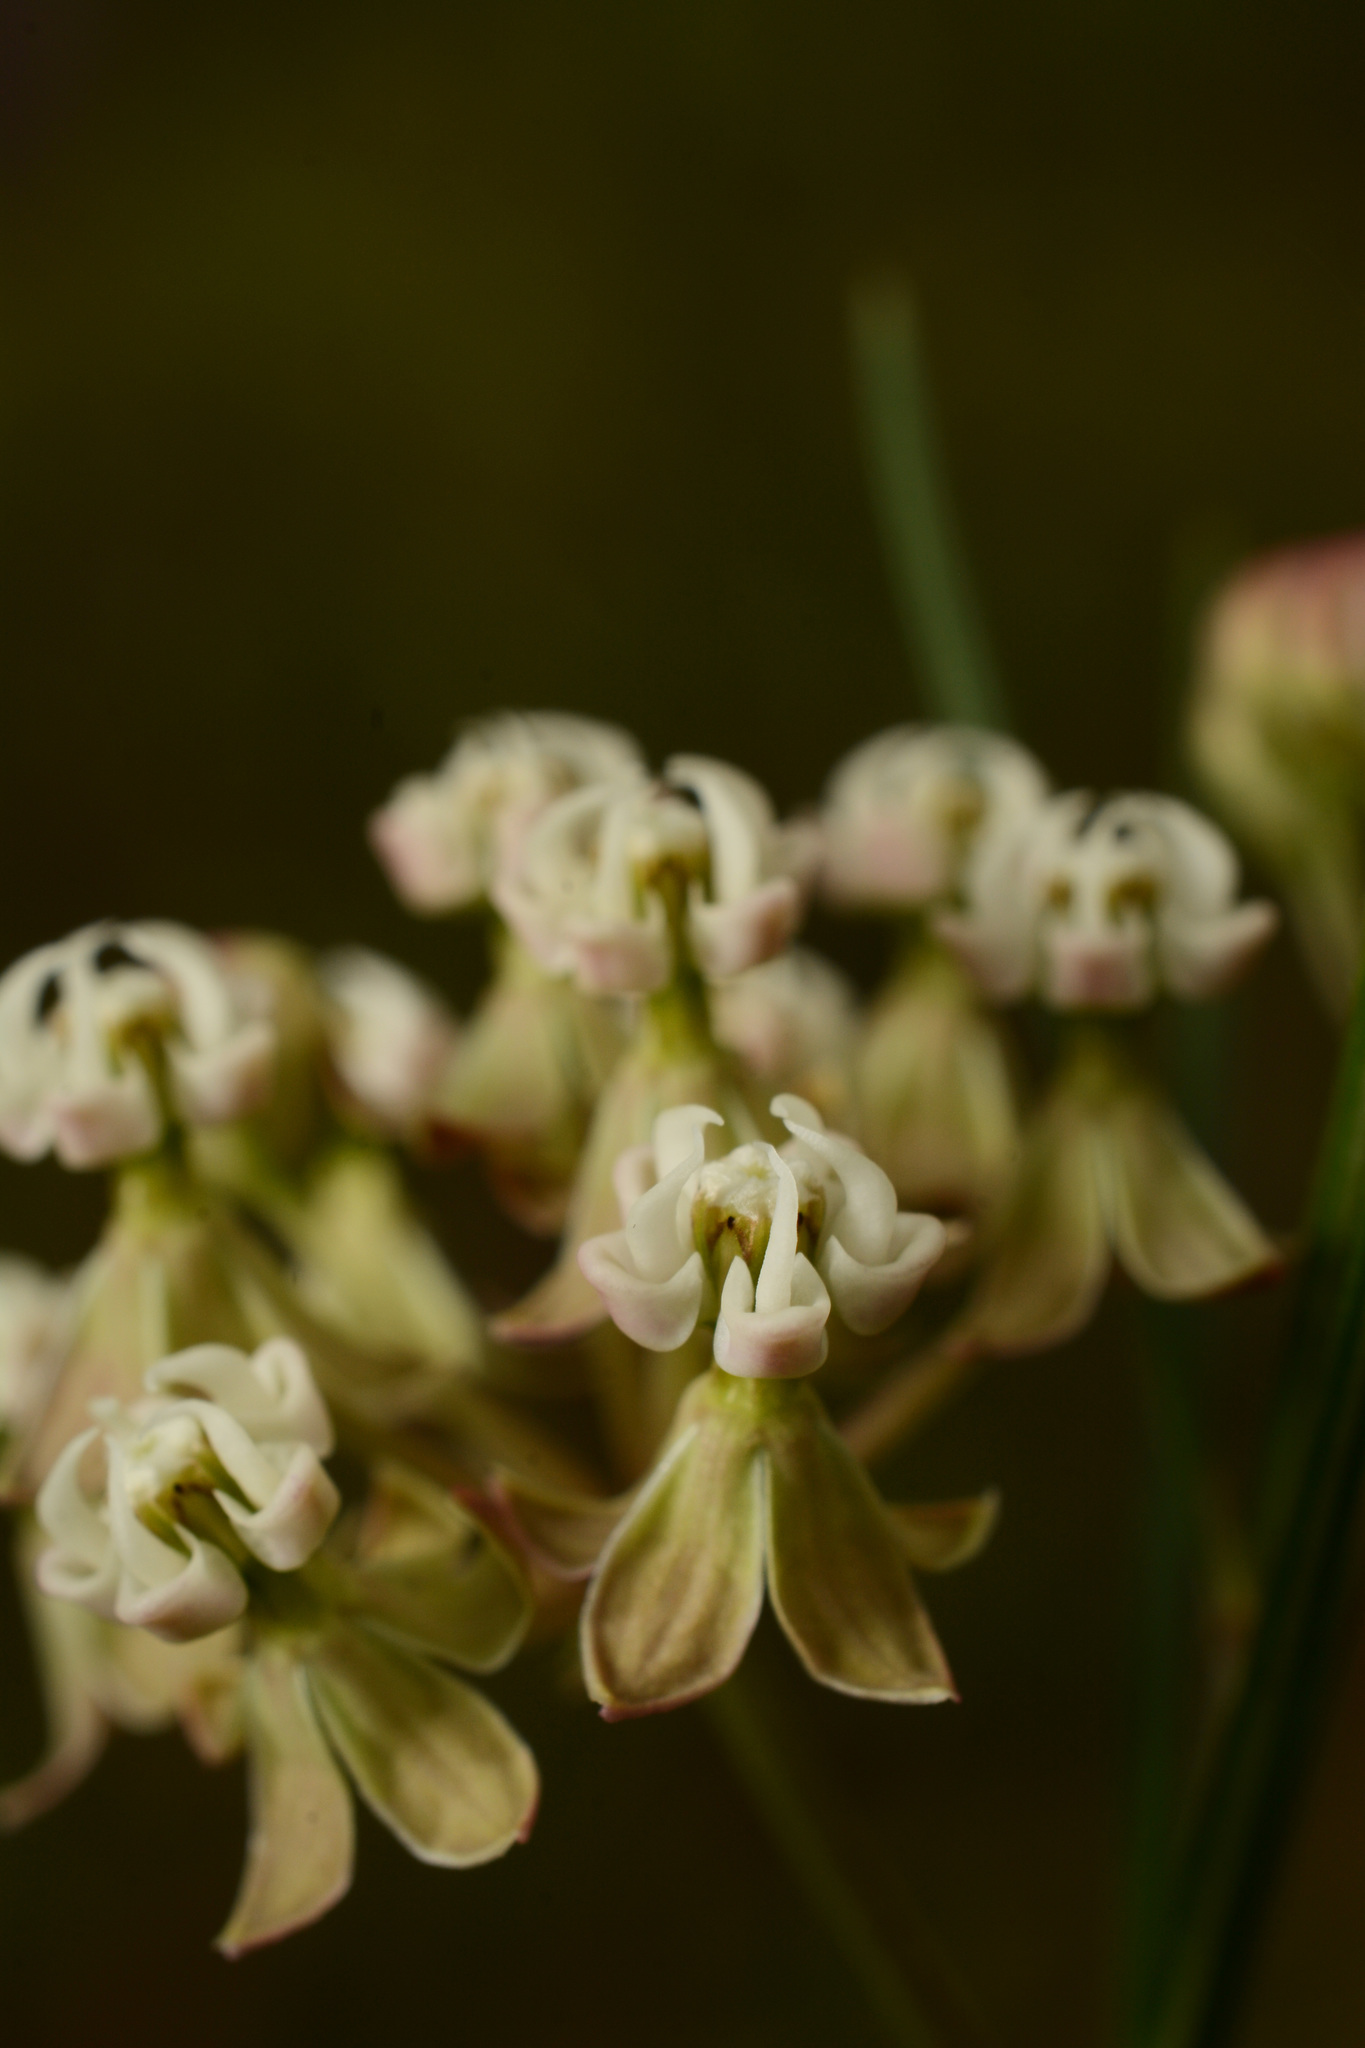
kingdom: Plantae
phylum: Tracheophyta
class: Magnoliopsida
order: Gentianales
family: Apocynaceae
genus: Asclepias
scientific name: Asclepias verticillata
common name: Eastern whorled milkweed
